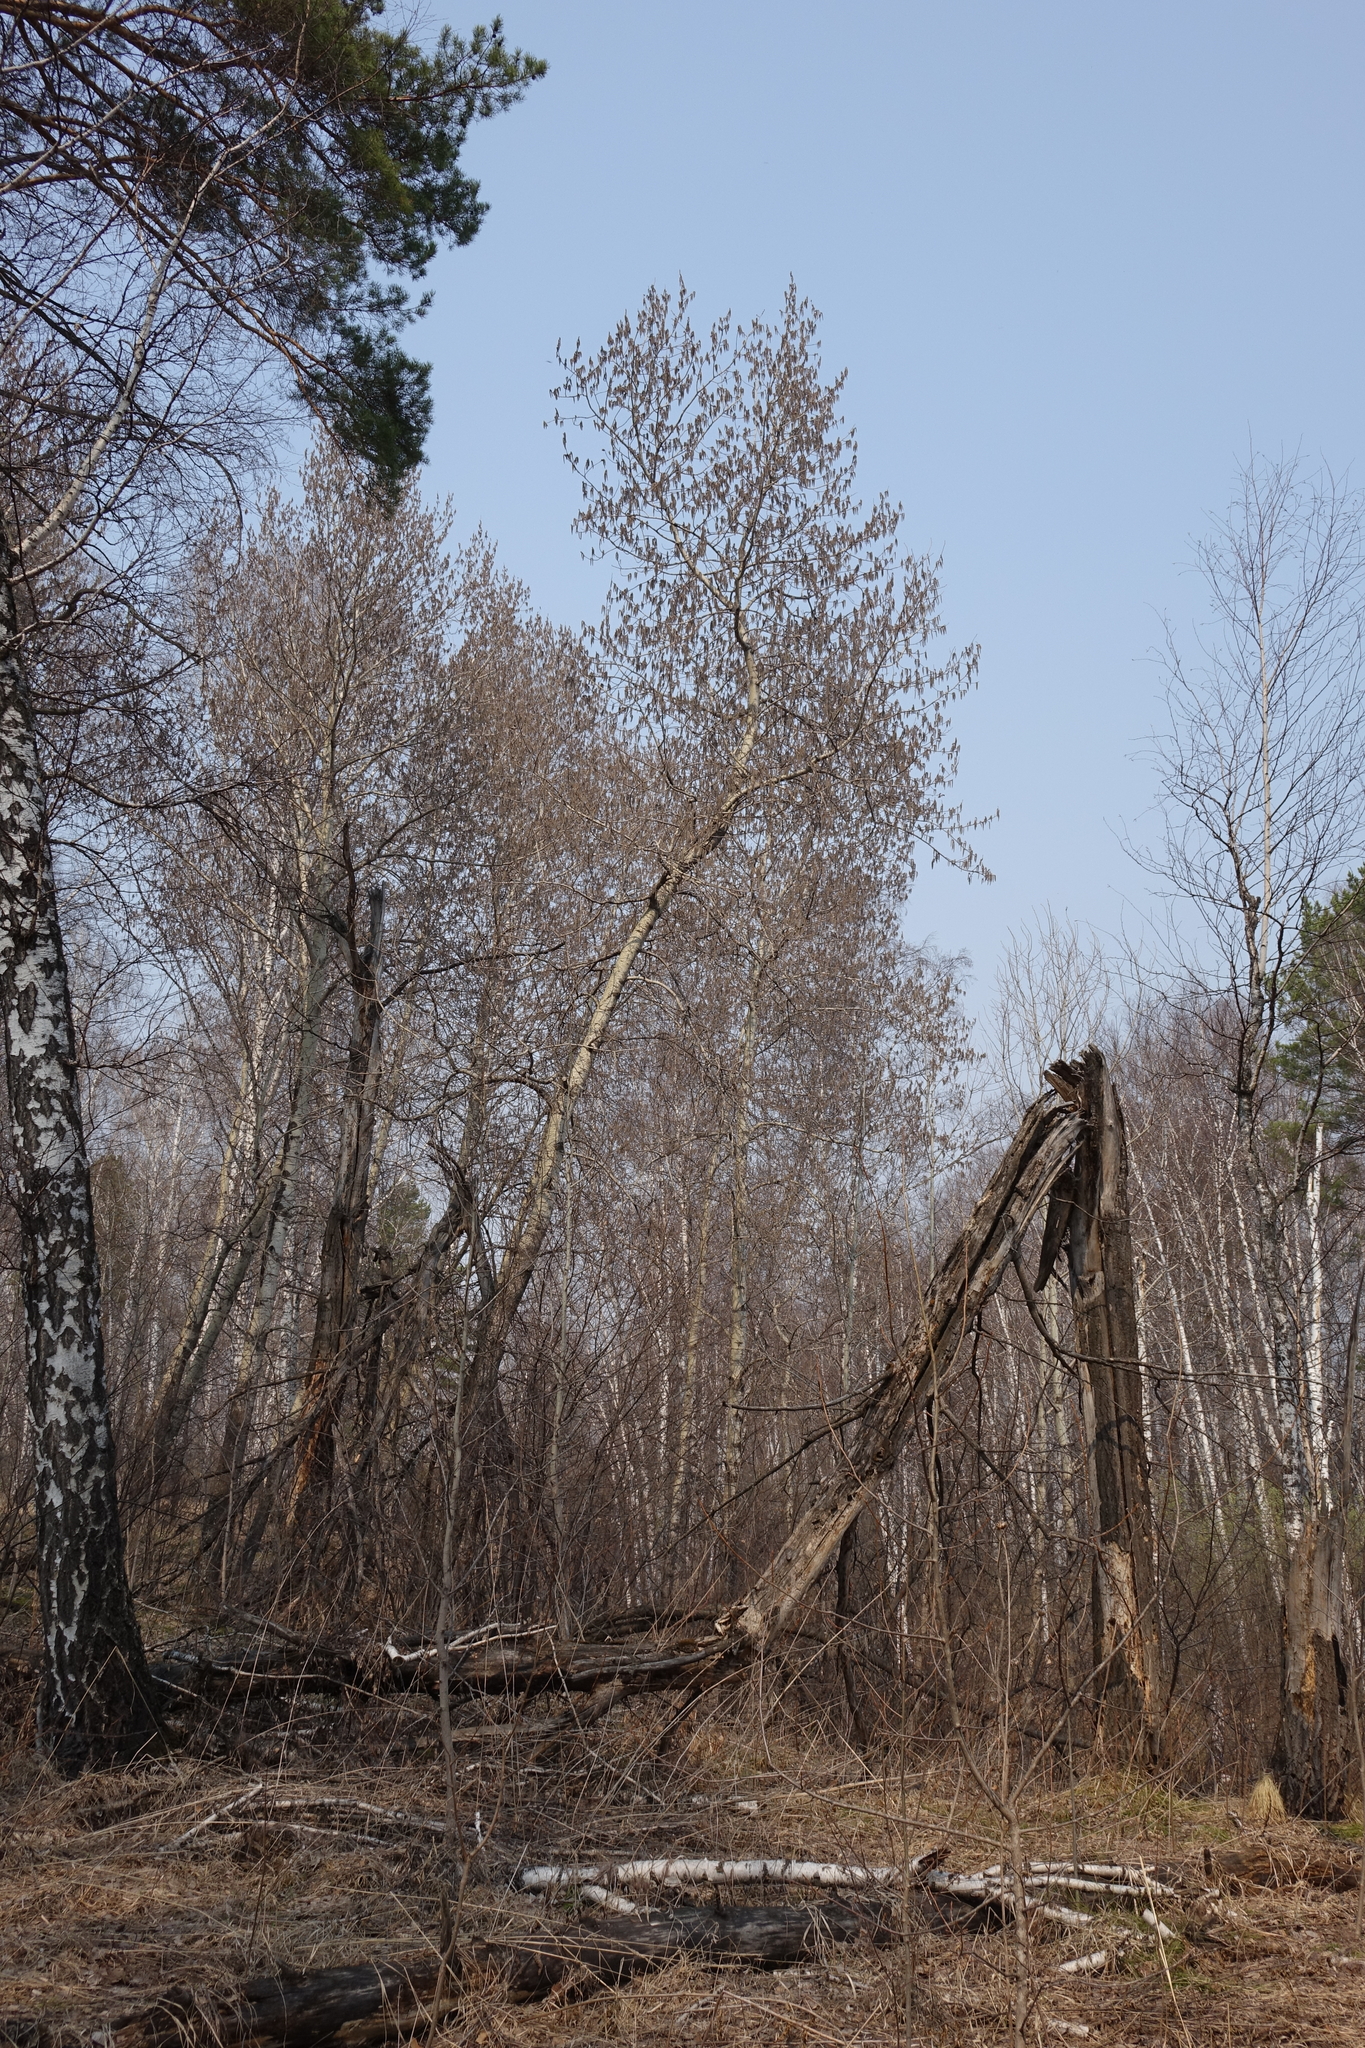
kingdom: Plantae
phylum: Tracheophyta
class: Magnoliopsida
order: Malpighiales
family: Salicaceae
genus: Populus
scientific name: Populus tremula
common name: European aspen
